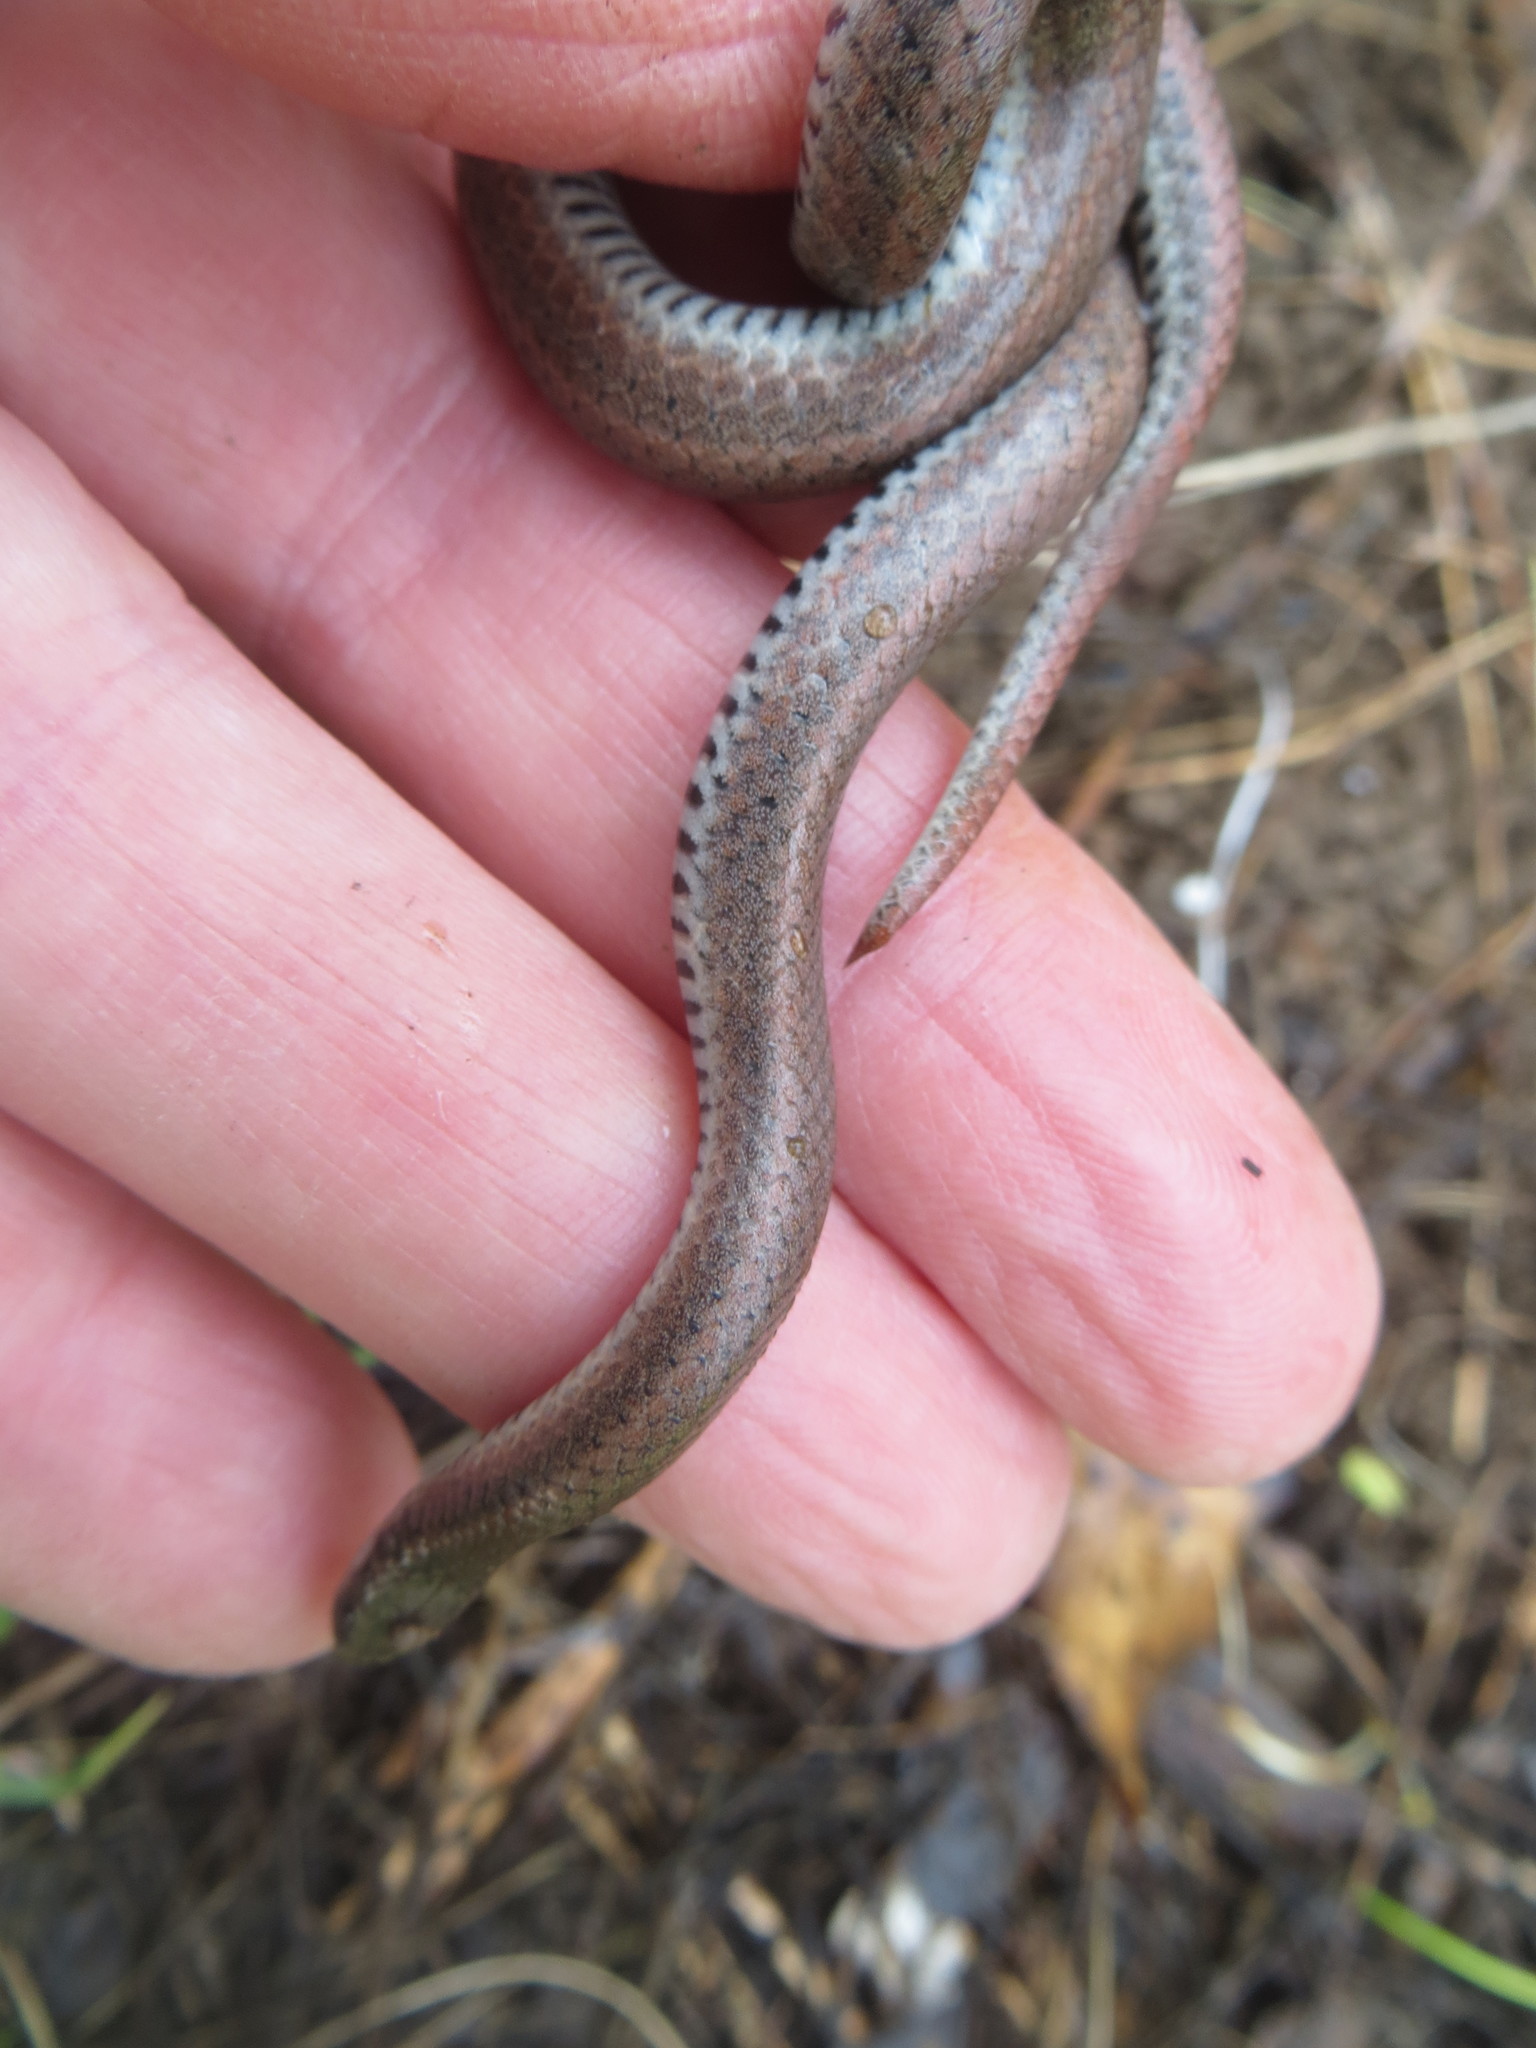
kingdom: Animalia
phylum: Chordata
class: Squamata
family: Colubridae
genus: Contia
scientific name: Contia tenuis
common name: Sharptail snake
